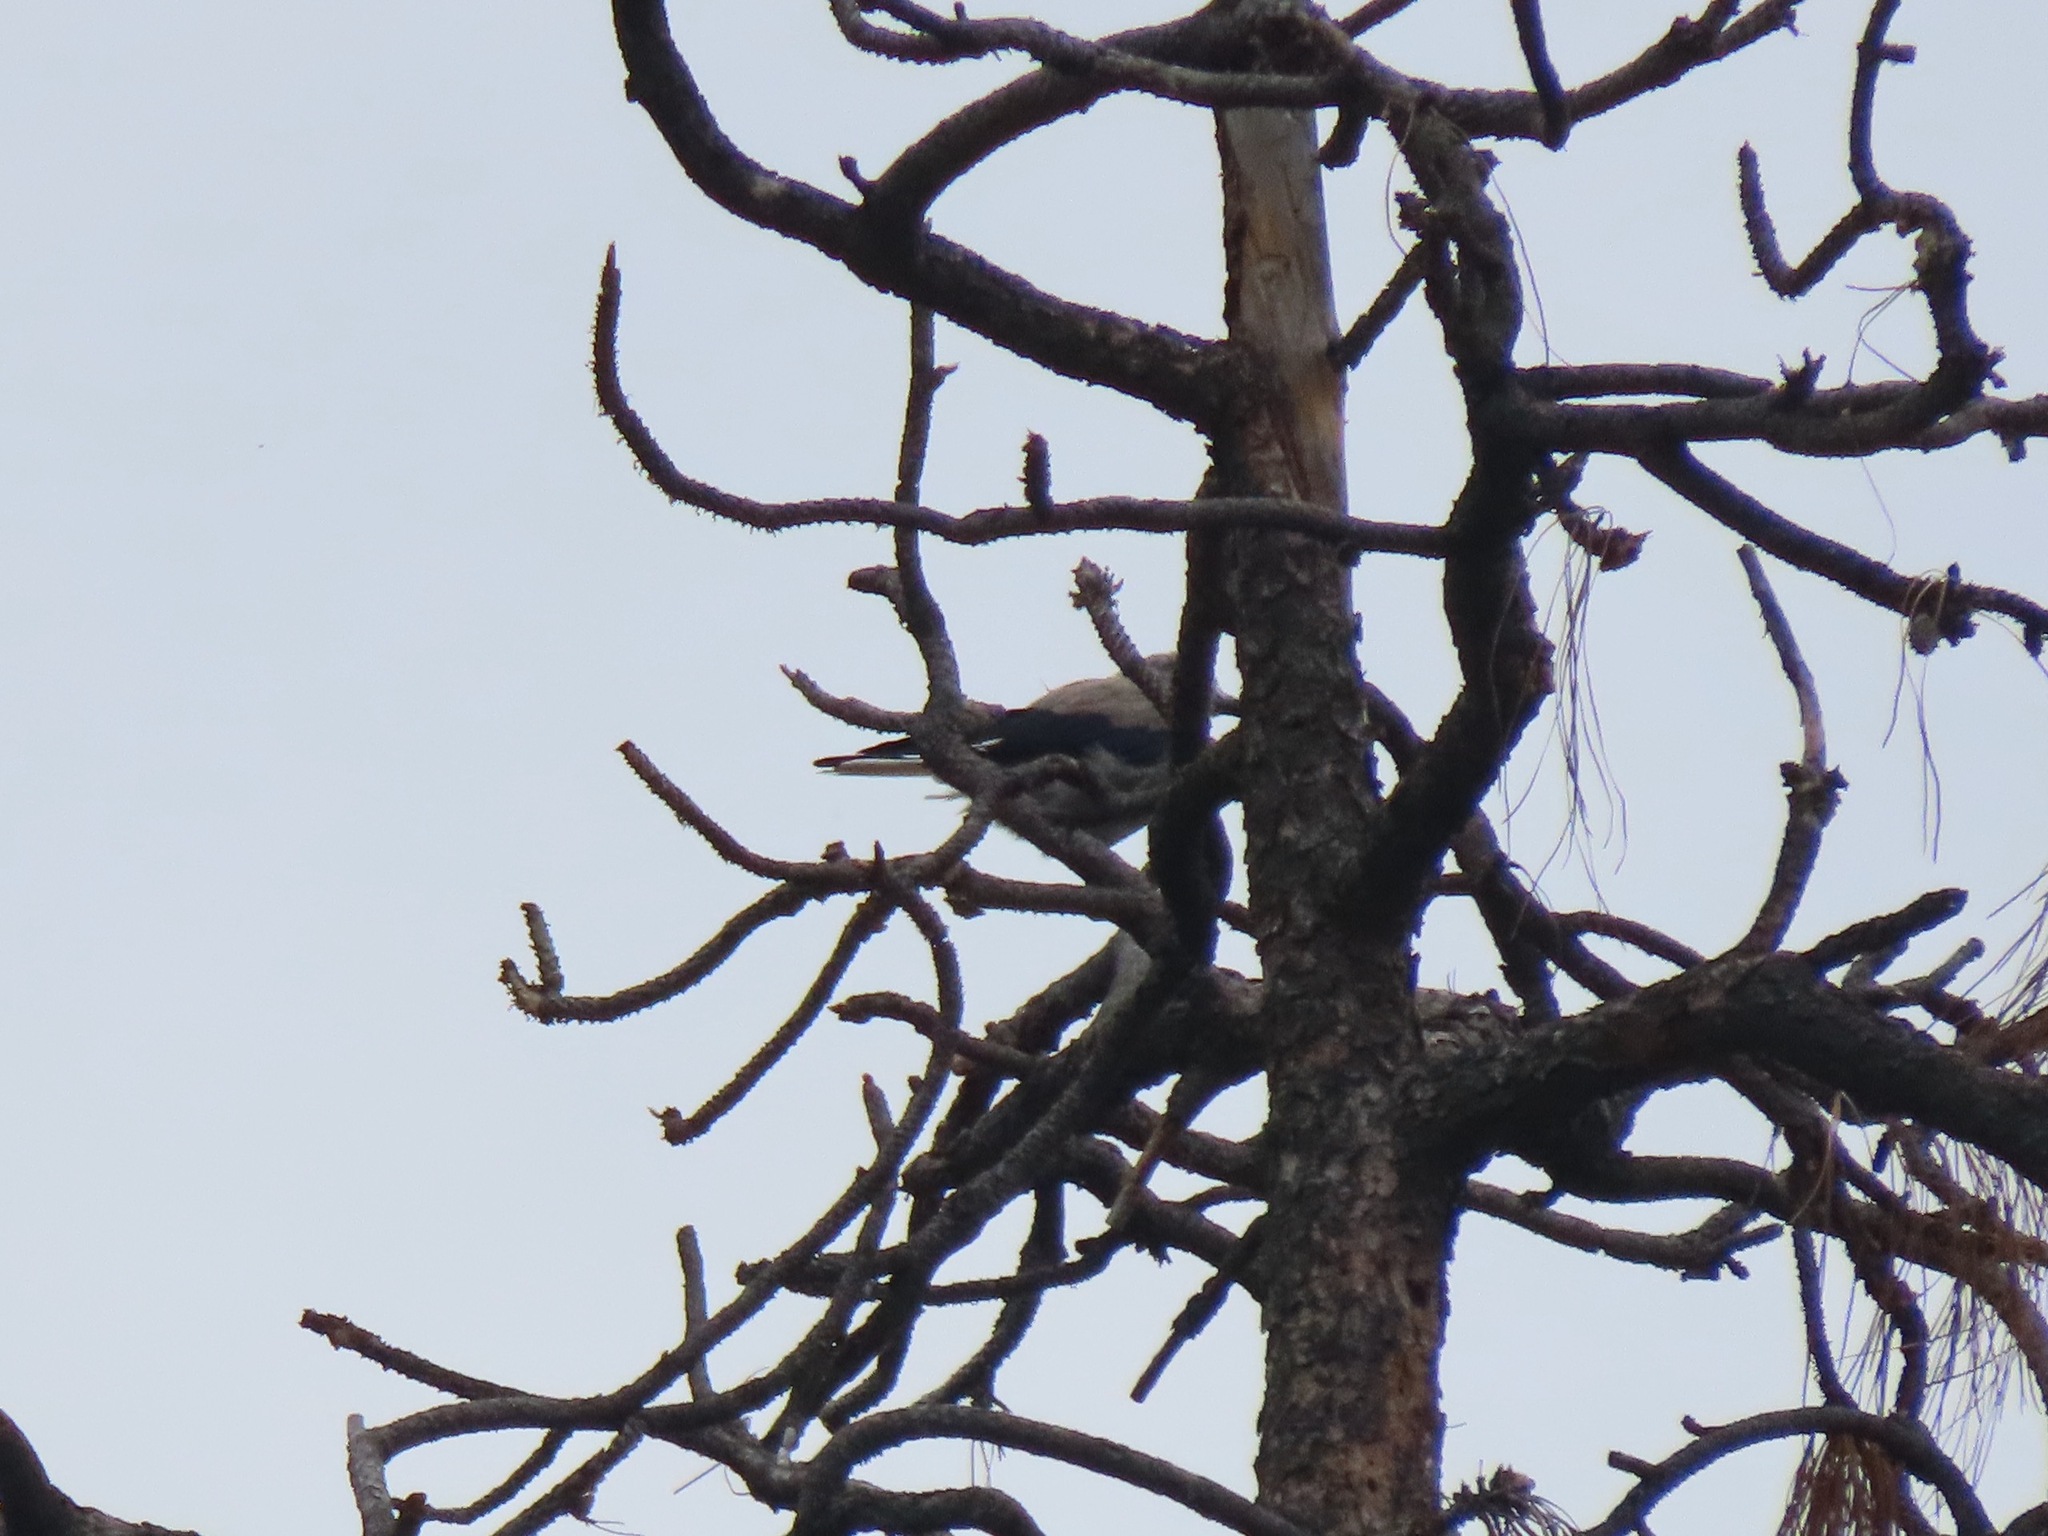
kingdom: Animalia
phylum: Chordata
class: Aves
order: Passeriformes
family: Corvidae
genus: Nucifraga
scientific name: Nucifraga columbiana
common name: Clark's nutcracker
